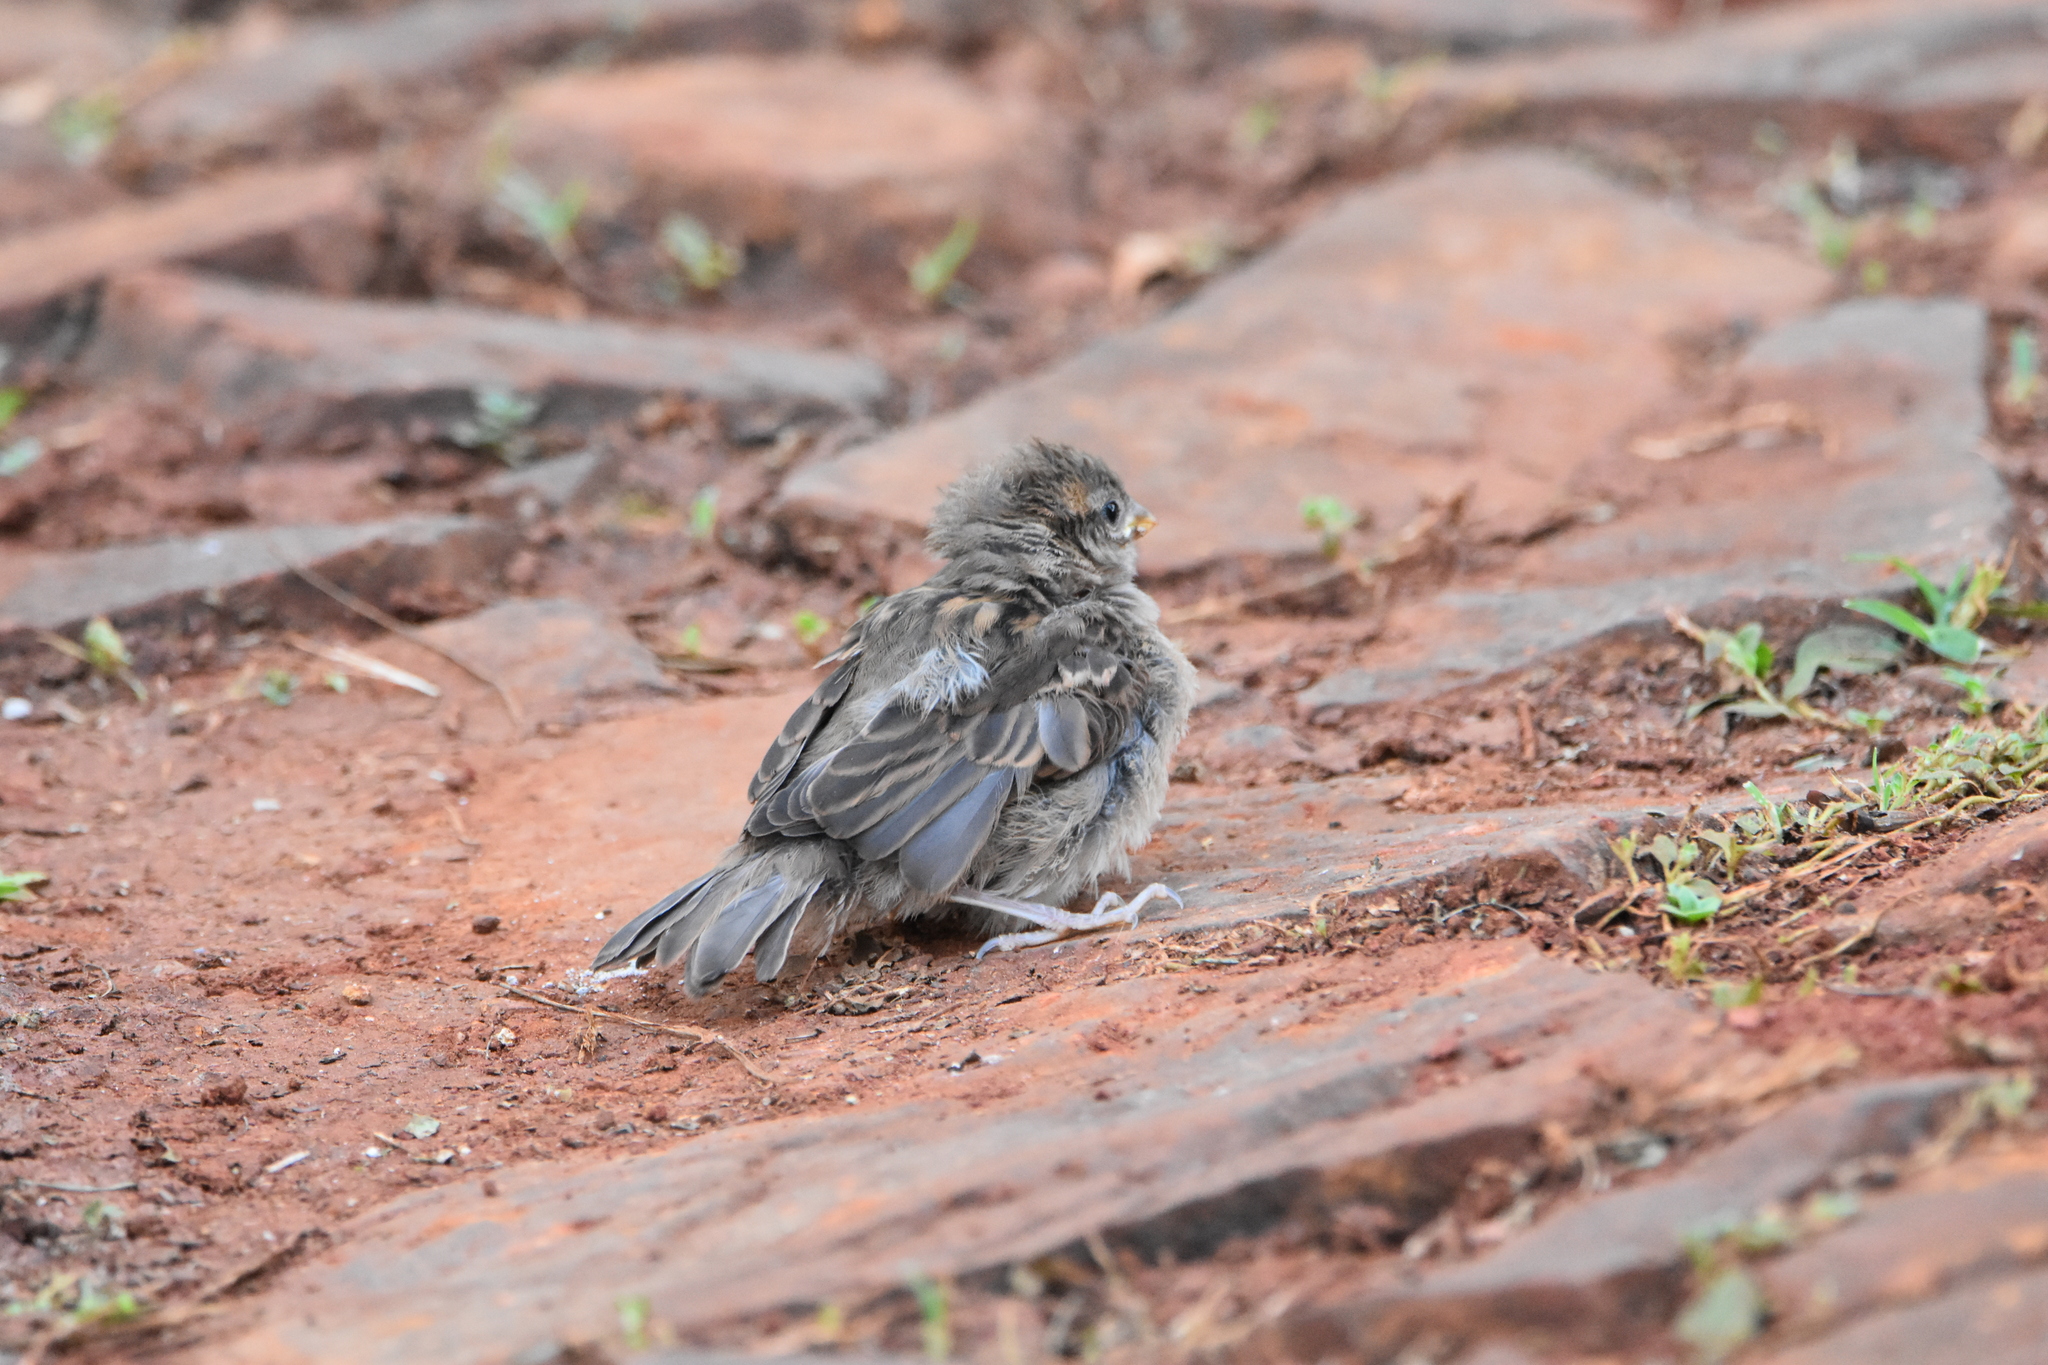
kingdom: Animalia
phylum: Chordata
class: Aves
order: Passeriformes
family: Passeridae
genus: Passer
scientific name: Passer domesticus
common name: House sparrow
